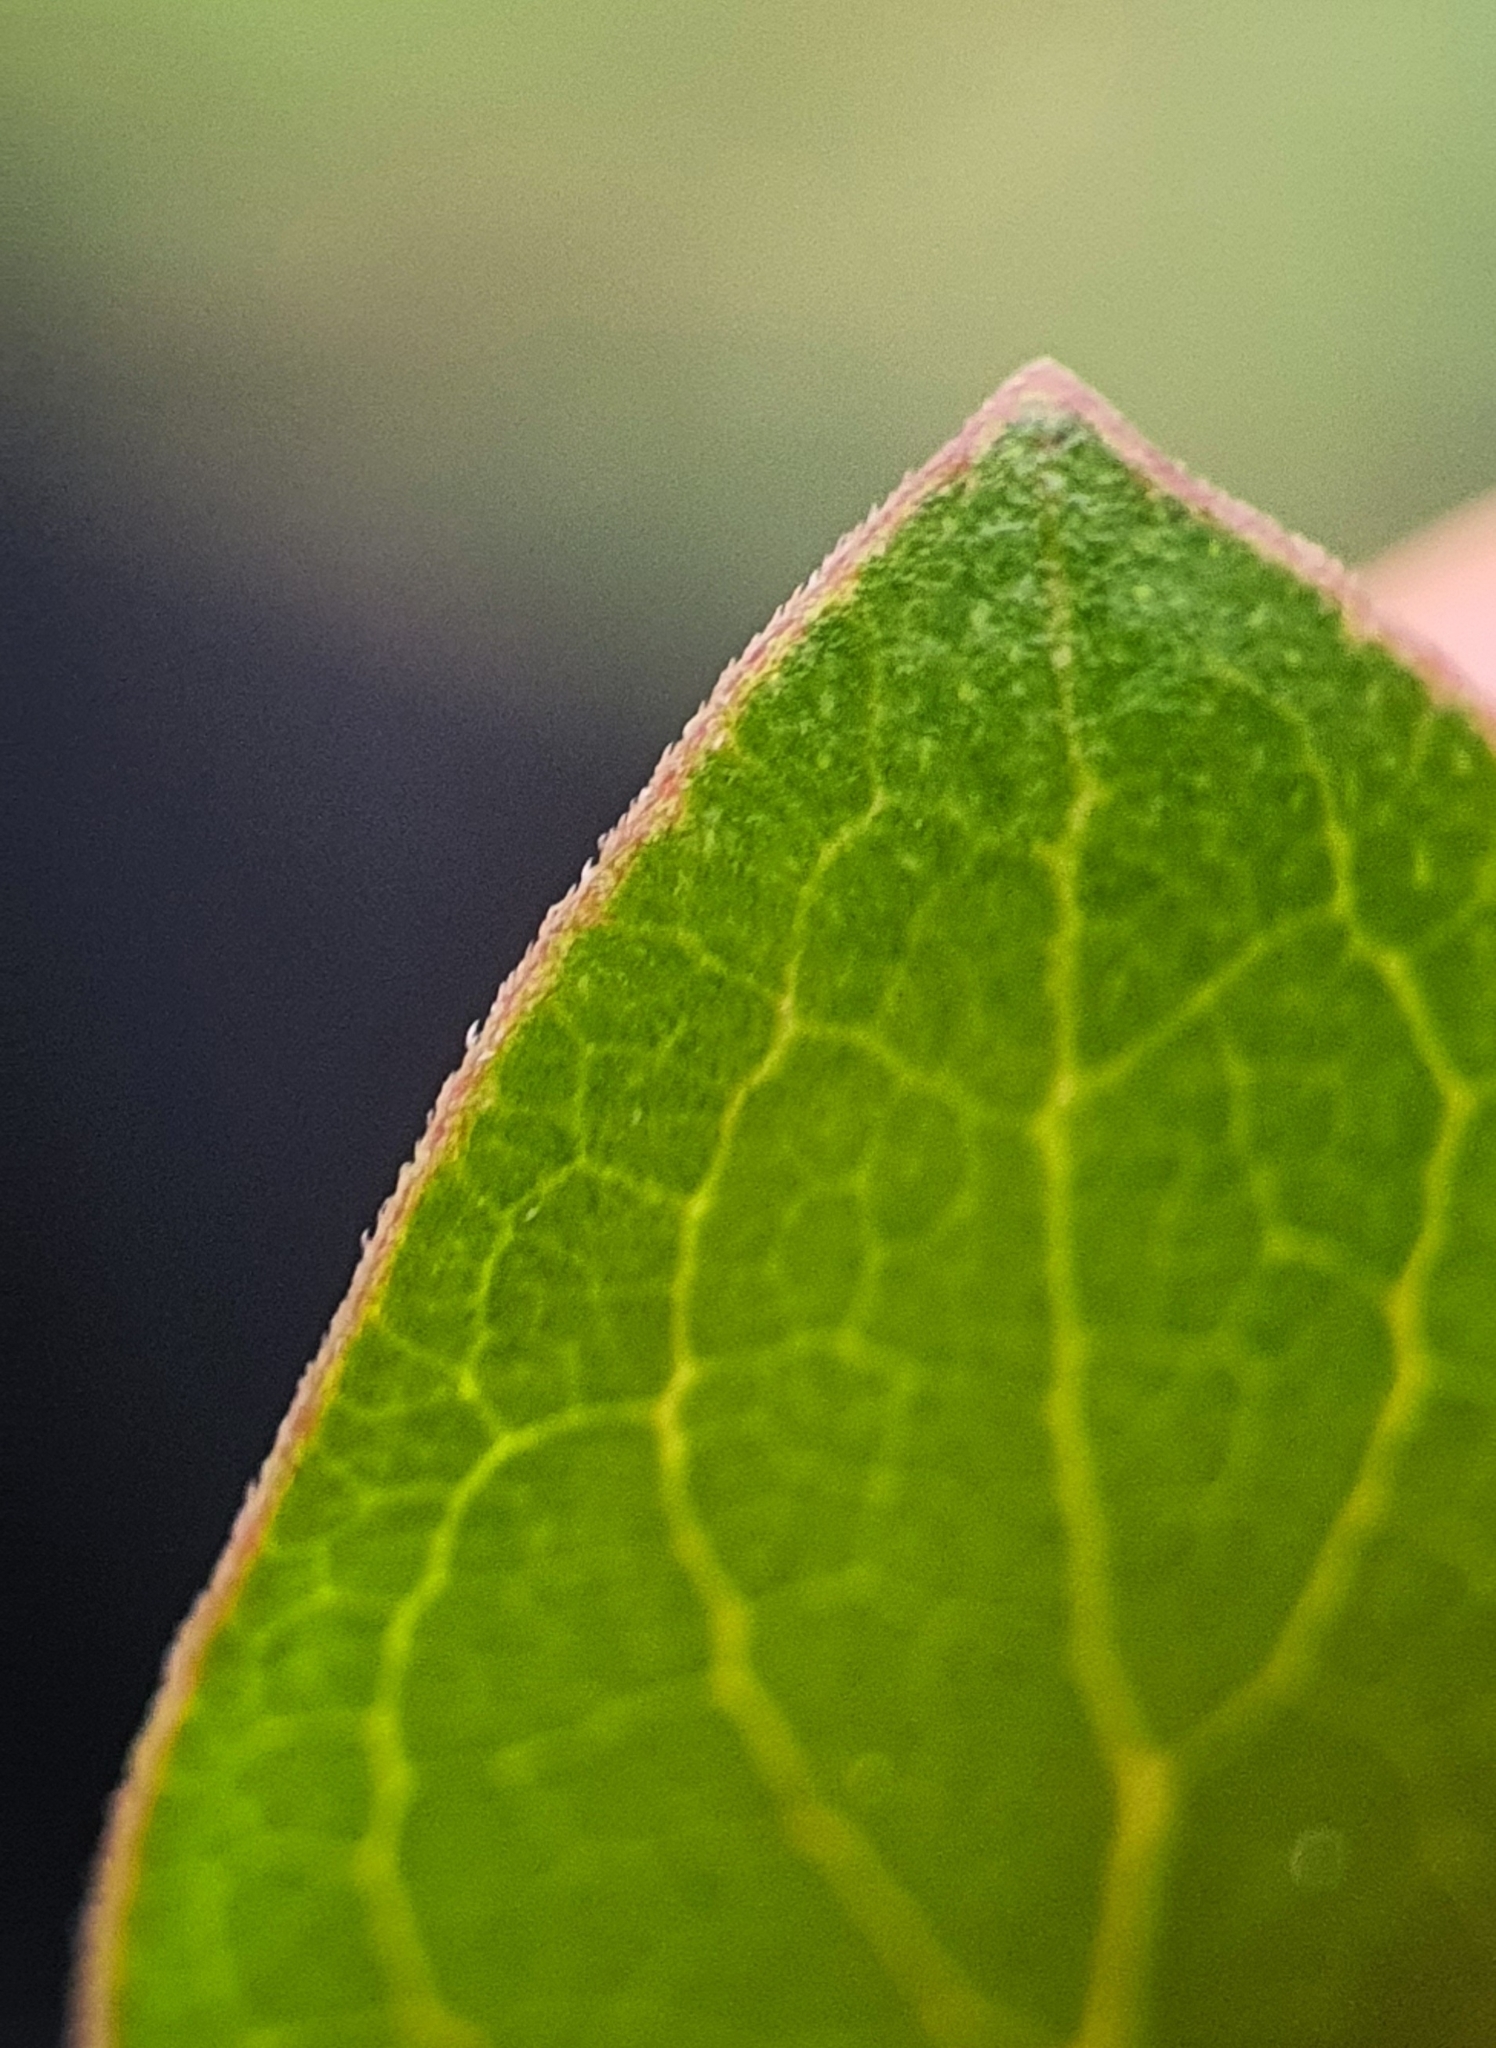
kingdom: Plantae
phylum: Tracheophyta
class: Magnoliopsida
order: Gentianales
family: Rubiaceae
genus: Coprosma
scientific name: Coprosma cunninghamii
